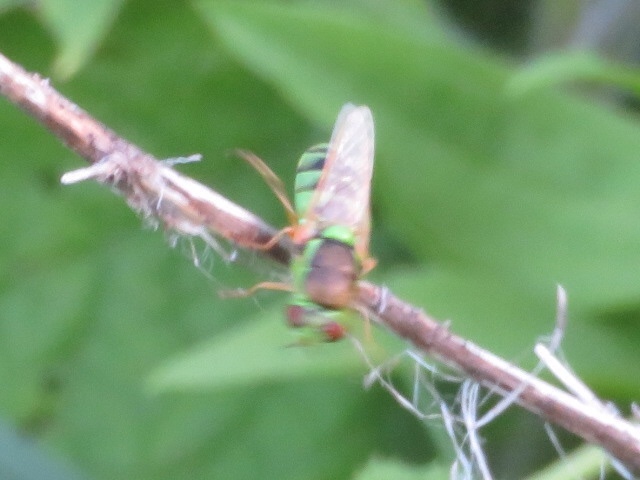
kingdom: Animalia
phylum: Arthropoda
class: Insecta
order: Diptera
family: Stratiomyidae
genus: Odontomyia
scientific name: Odontomyia cincta
